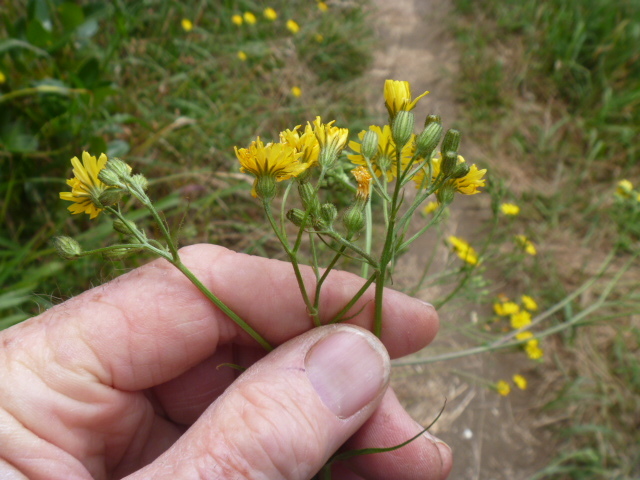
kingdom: Plantae
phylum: Tracheophyta
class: Magnoliopsida
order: Asterales
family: Asteraceae
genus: Crepis
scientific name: Crepis capillaris
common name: Smooth hawksbeard
